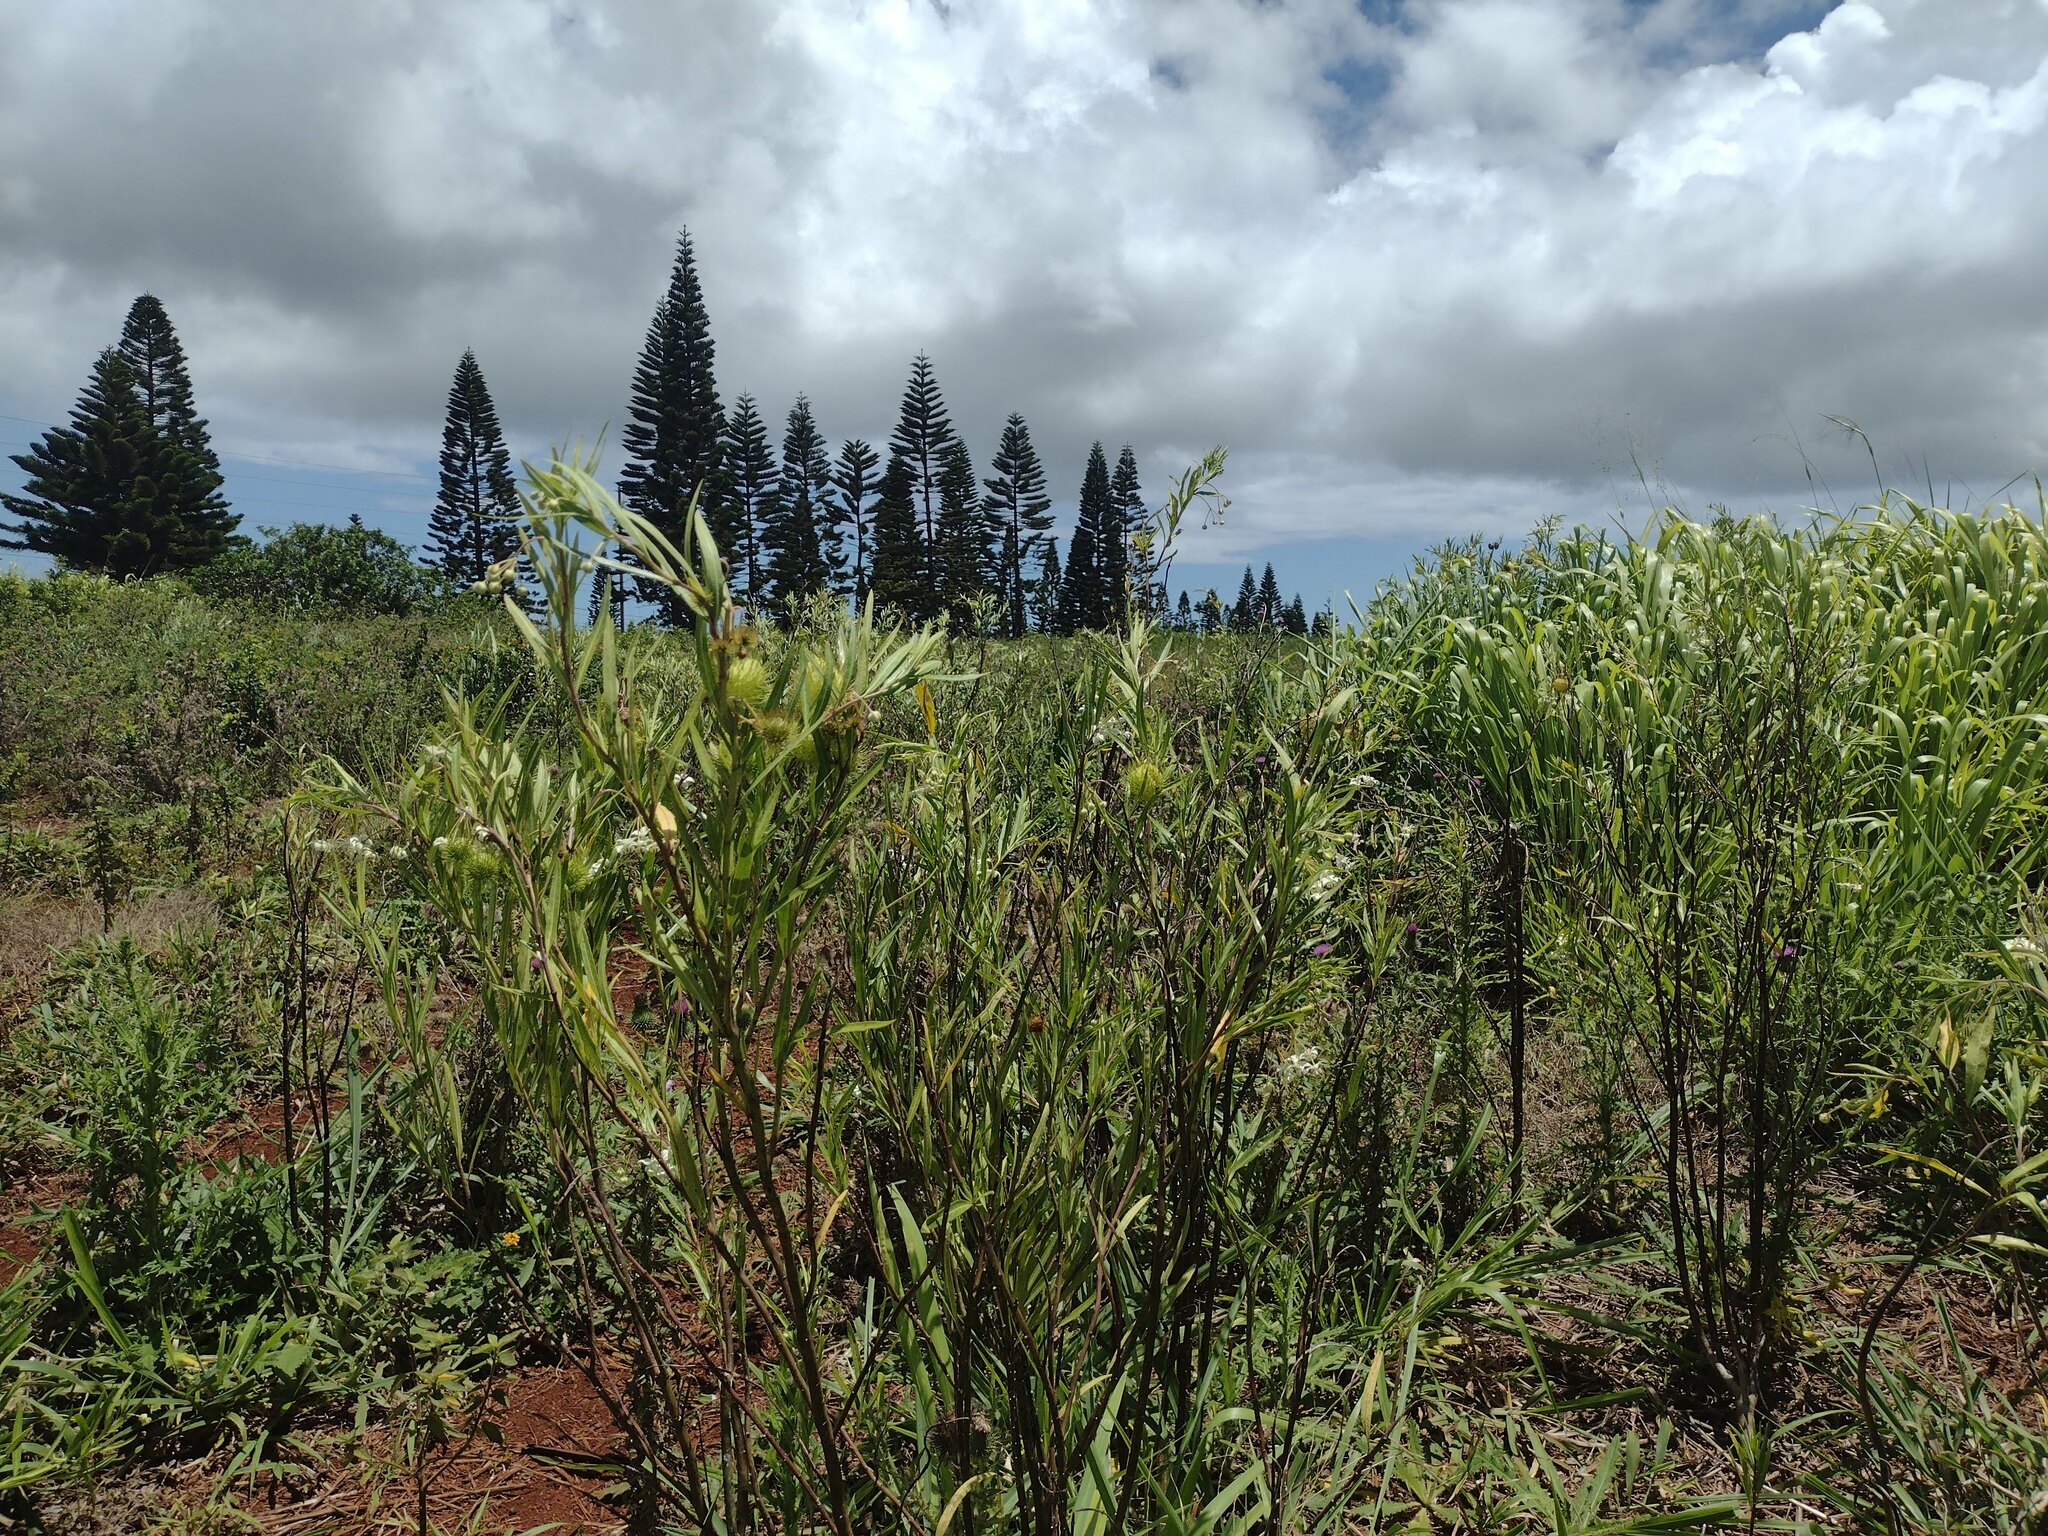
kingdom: Plantae
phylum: Tracheophyta
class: Magnoliopsida
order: Gentianales
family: Apocynaceae
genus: Gomphocarpus
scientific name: Gomphocarpus physocarpus
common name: Balloon cotton bush
